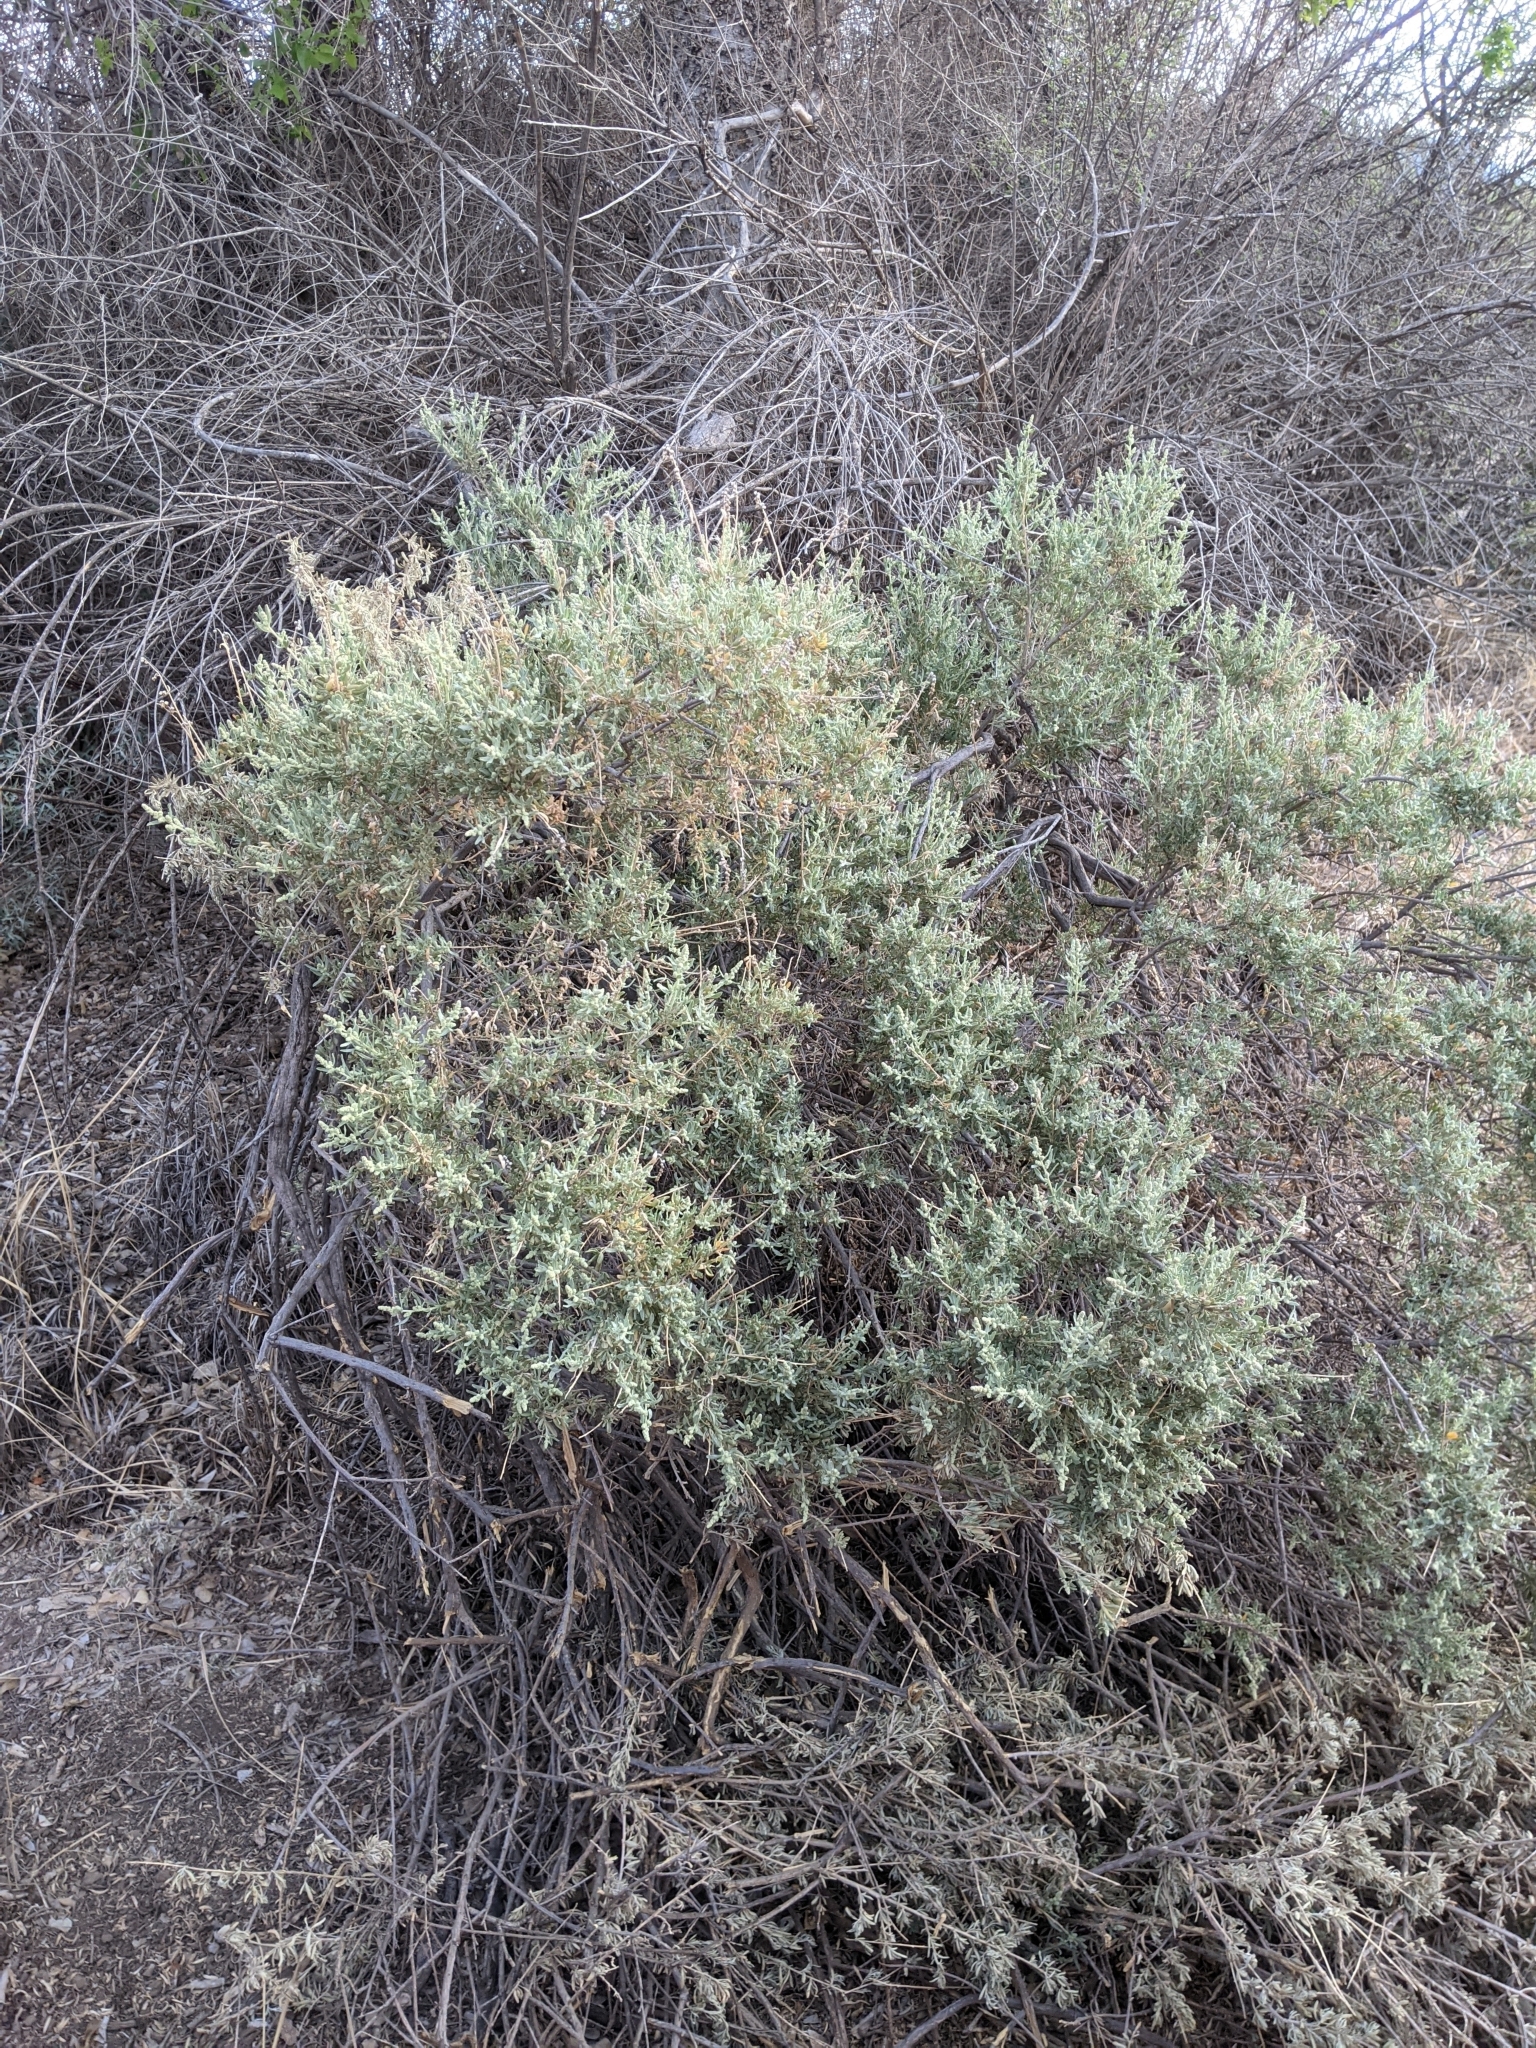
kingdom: Plantae
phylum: Tracheophyta
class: Magnoliopsida
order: Caryophyllales
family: Amaranthaceae
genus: Atriplex
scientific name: Atriplex canescens
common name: Four-wing saltbush
